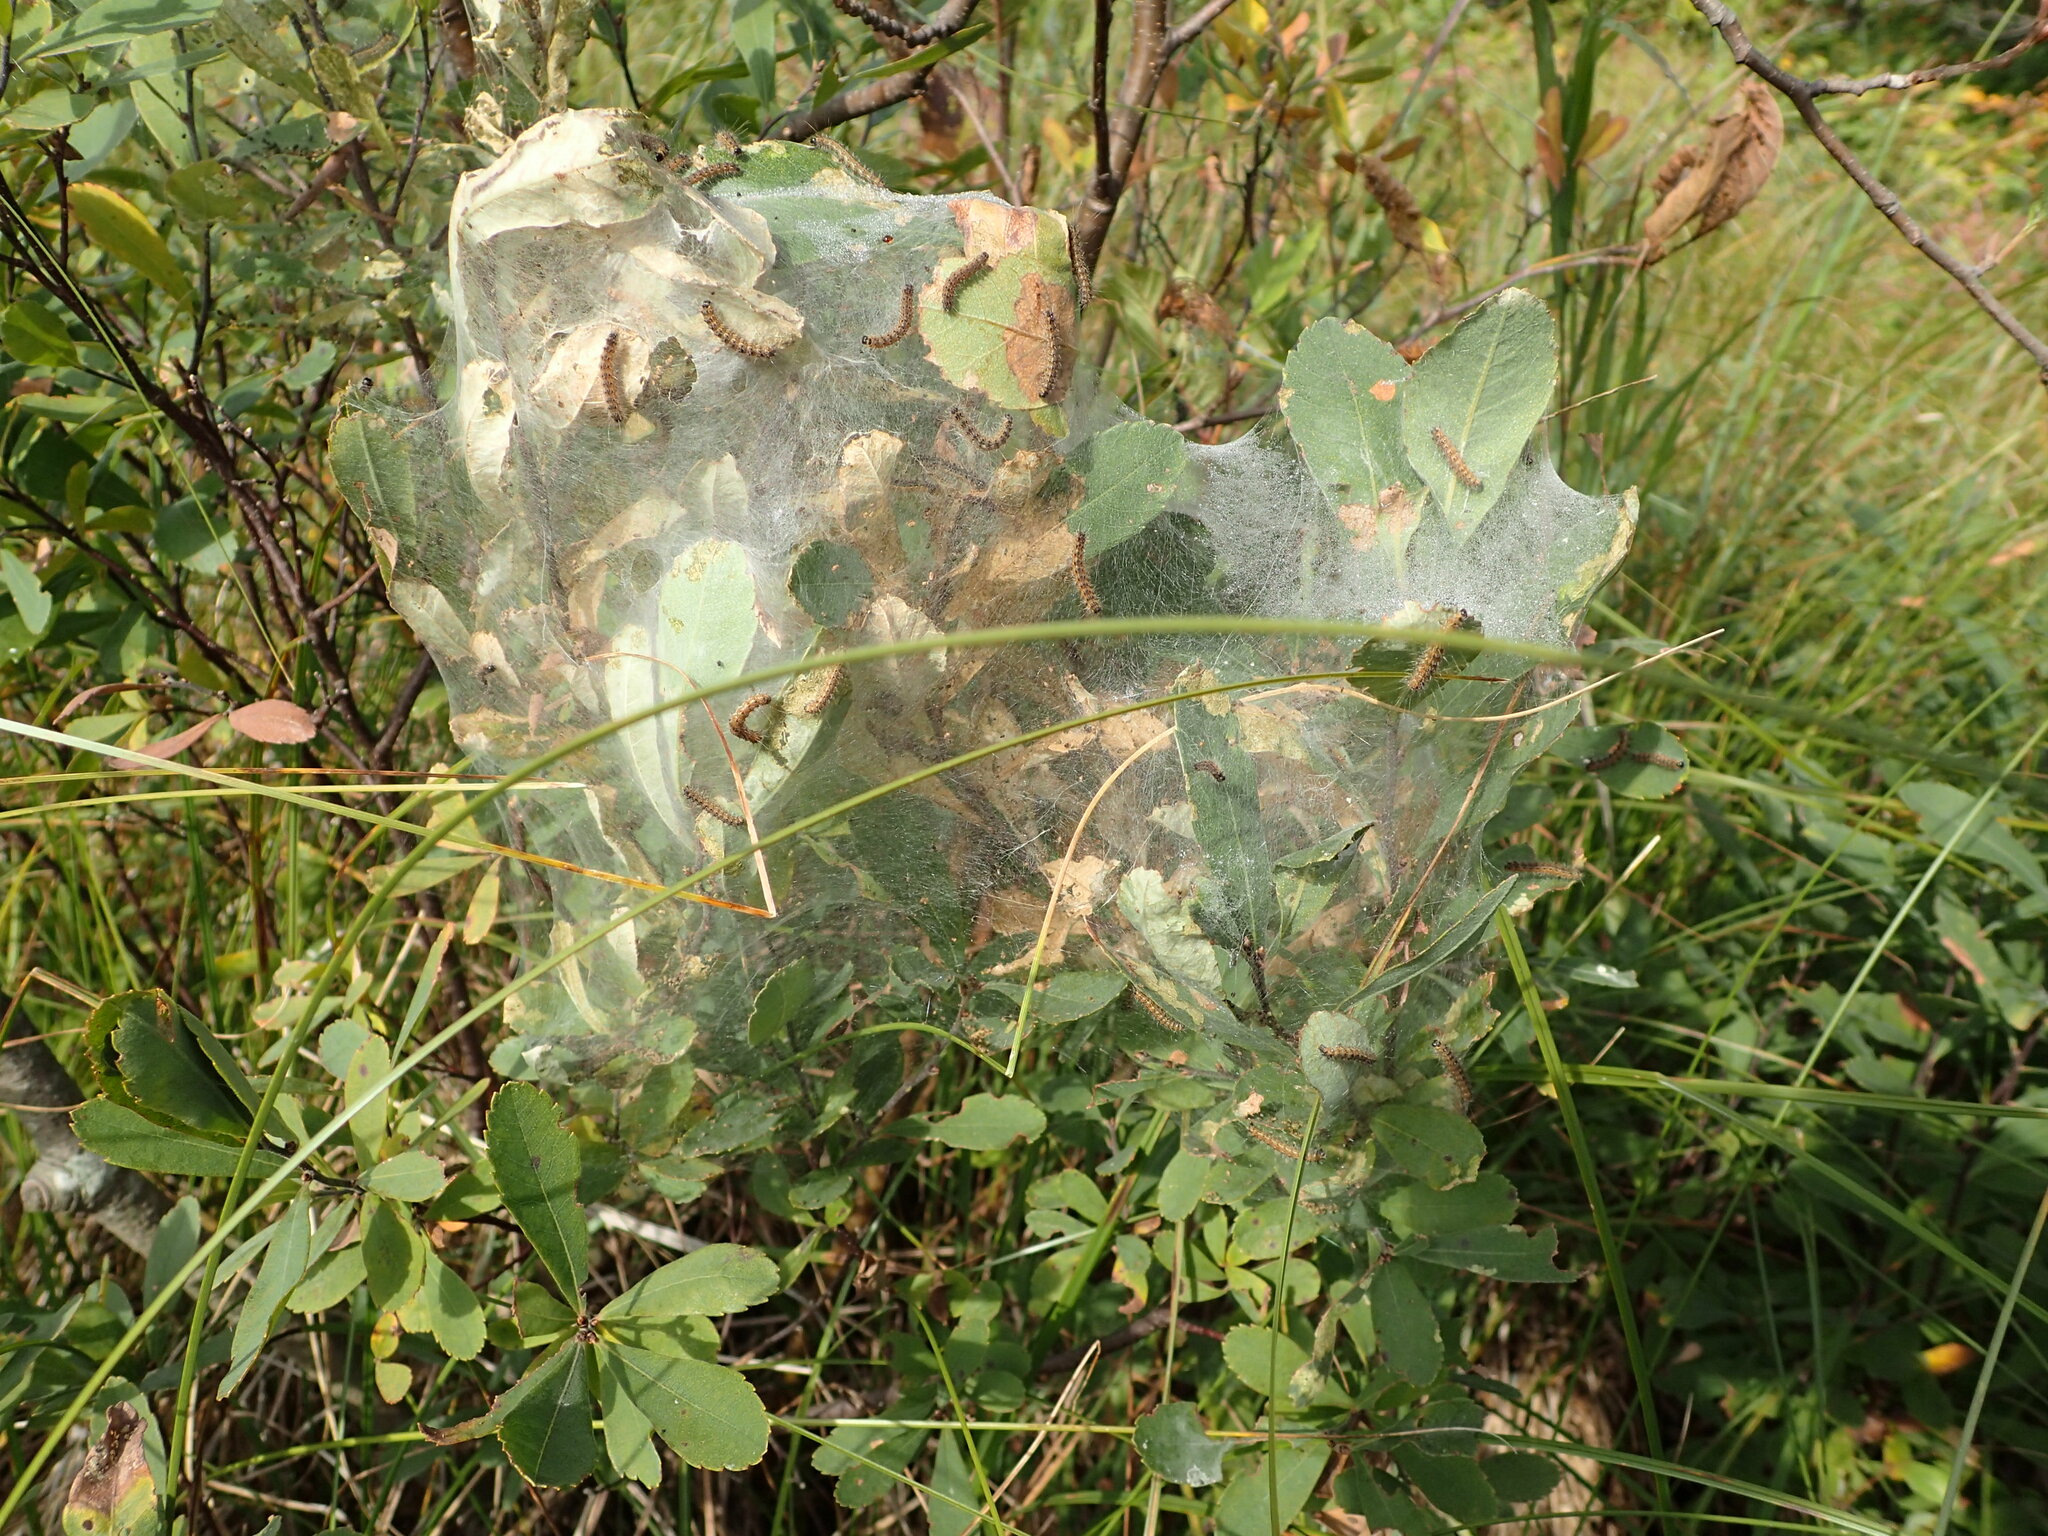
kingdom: Animalia
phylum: Arthropoda
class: Insecta
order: Lepidoptera
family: Erebidae
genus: Hyphantria
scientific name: Hyphantria cunea
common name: American white moth
